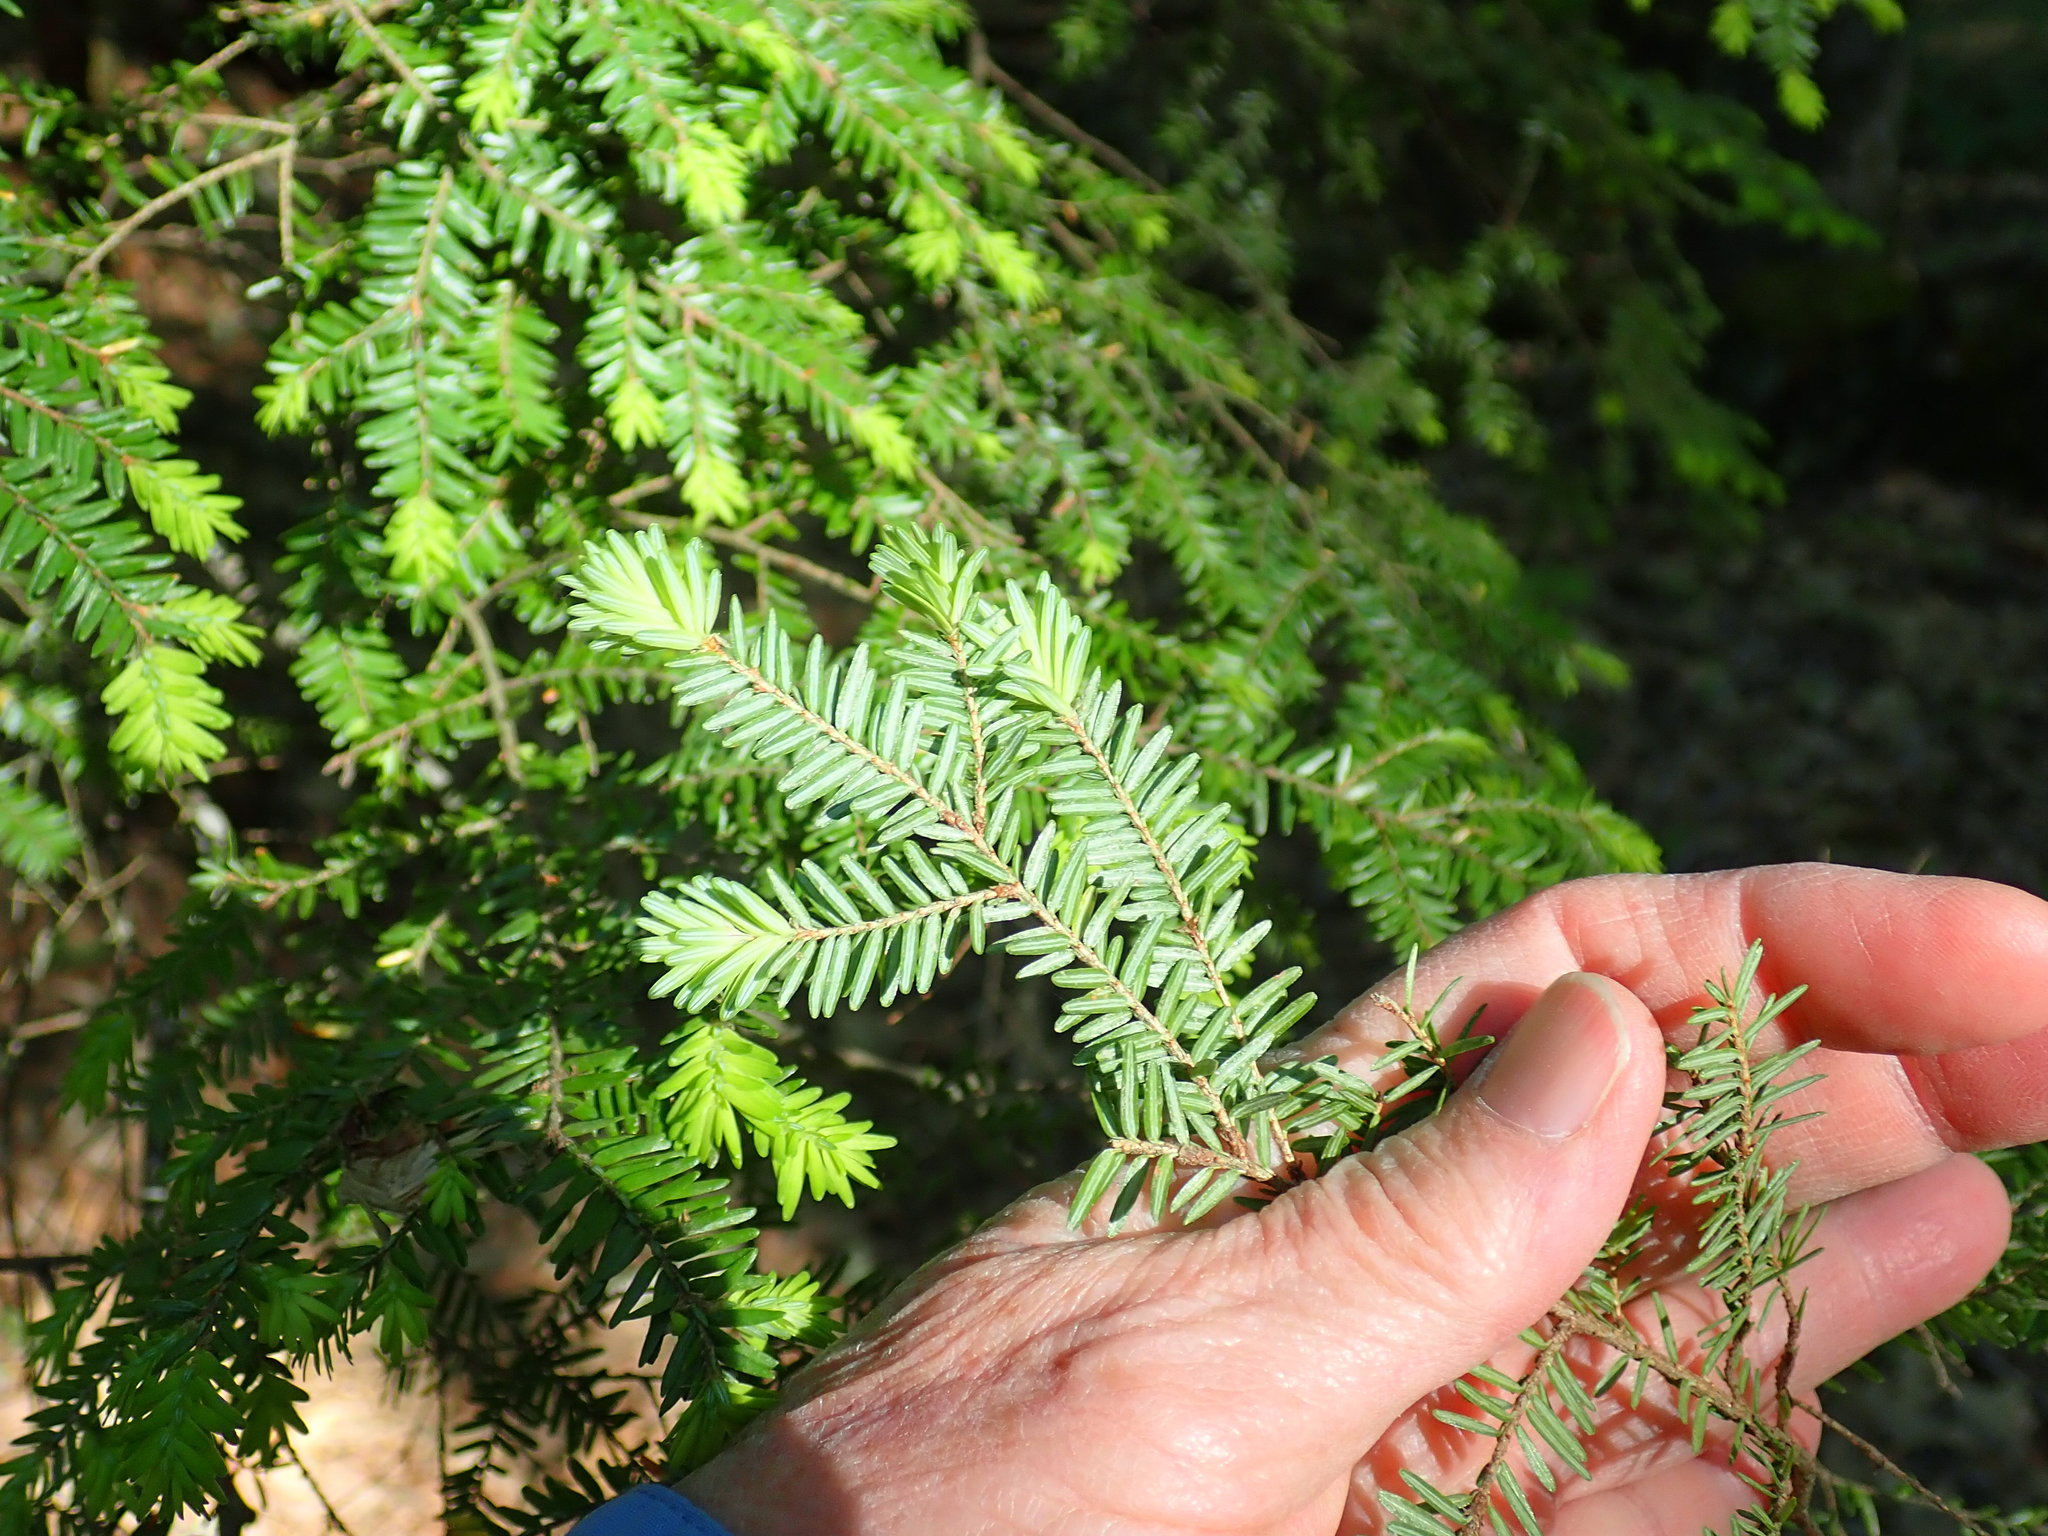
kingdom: Plantae
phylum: Tracheophyta
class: Pinopsida
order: Pinales
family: Pinaceae
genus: Tsuga
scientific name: Tsuga canadensis
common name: Eastern hemlock
